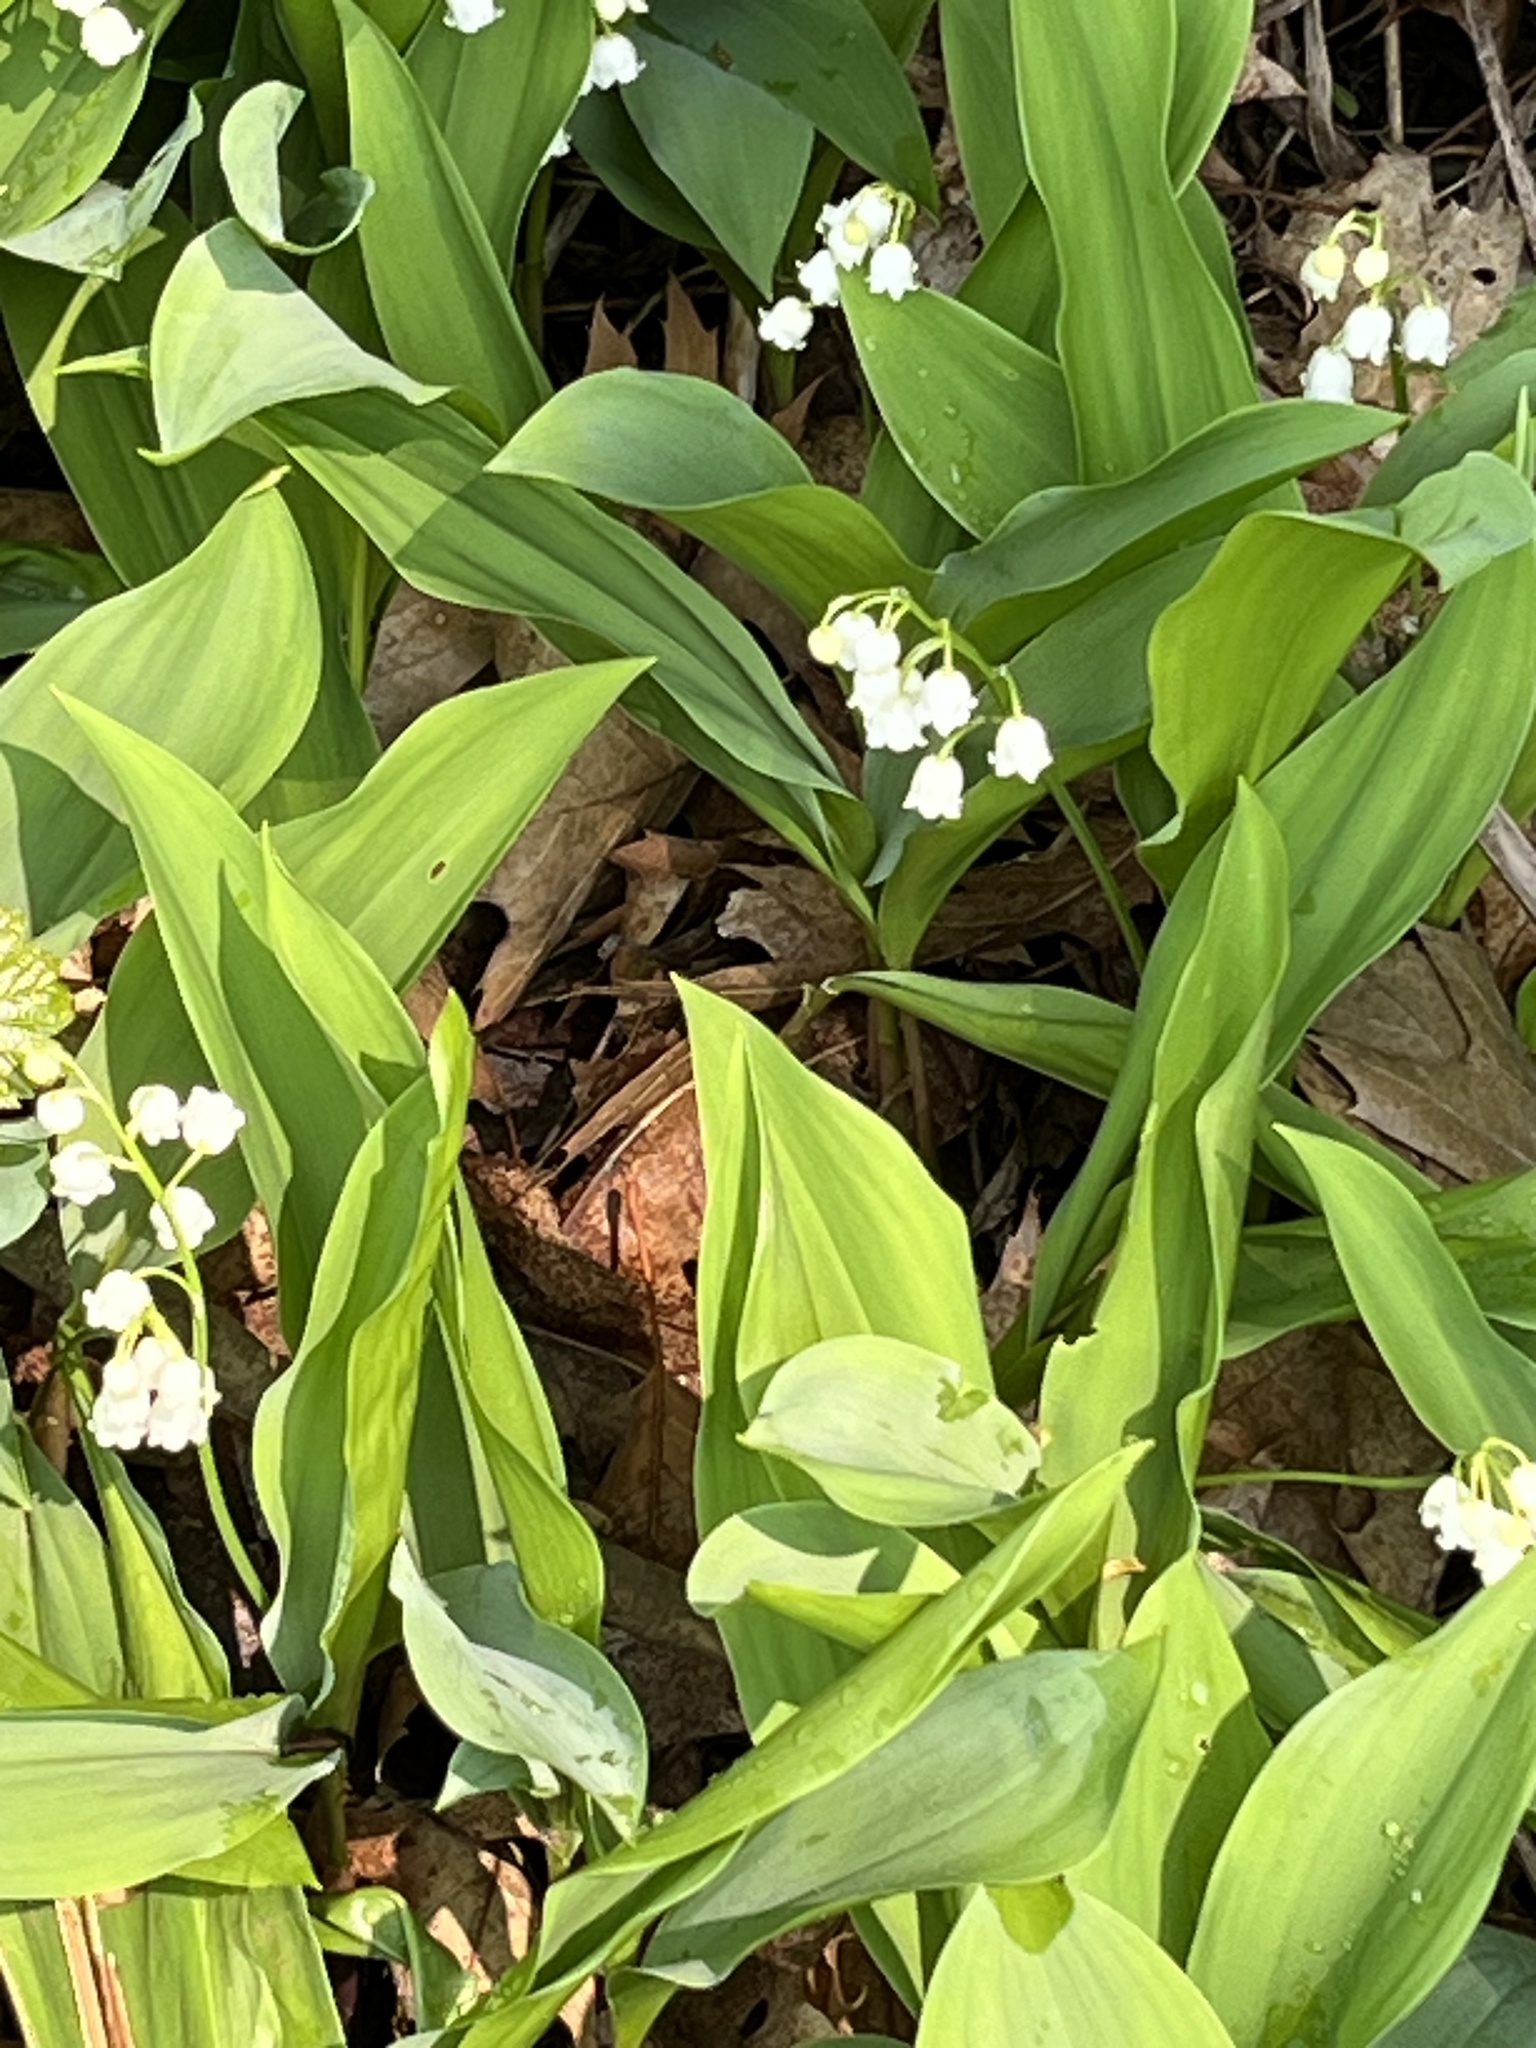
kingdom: Plantae
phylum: Tracheophyta
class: Liliopsida
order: Asparagales
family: Asparagaceae
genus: Convallaria
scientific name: Convallaria majalis
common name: Lily-of-the-valley
